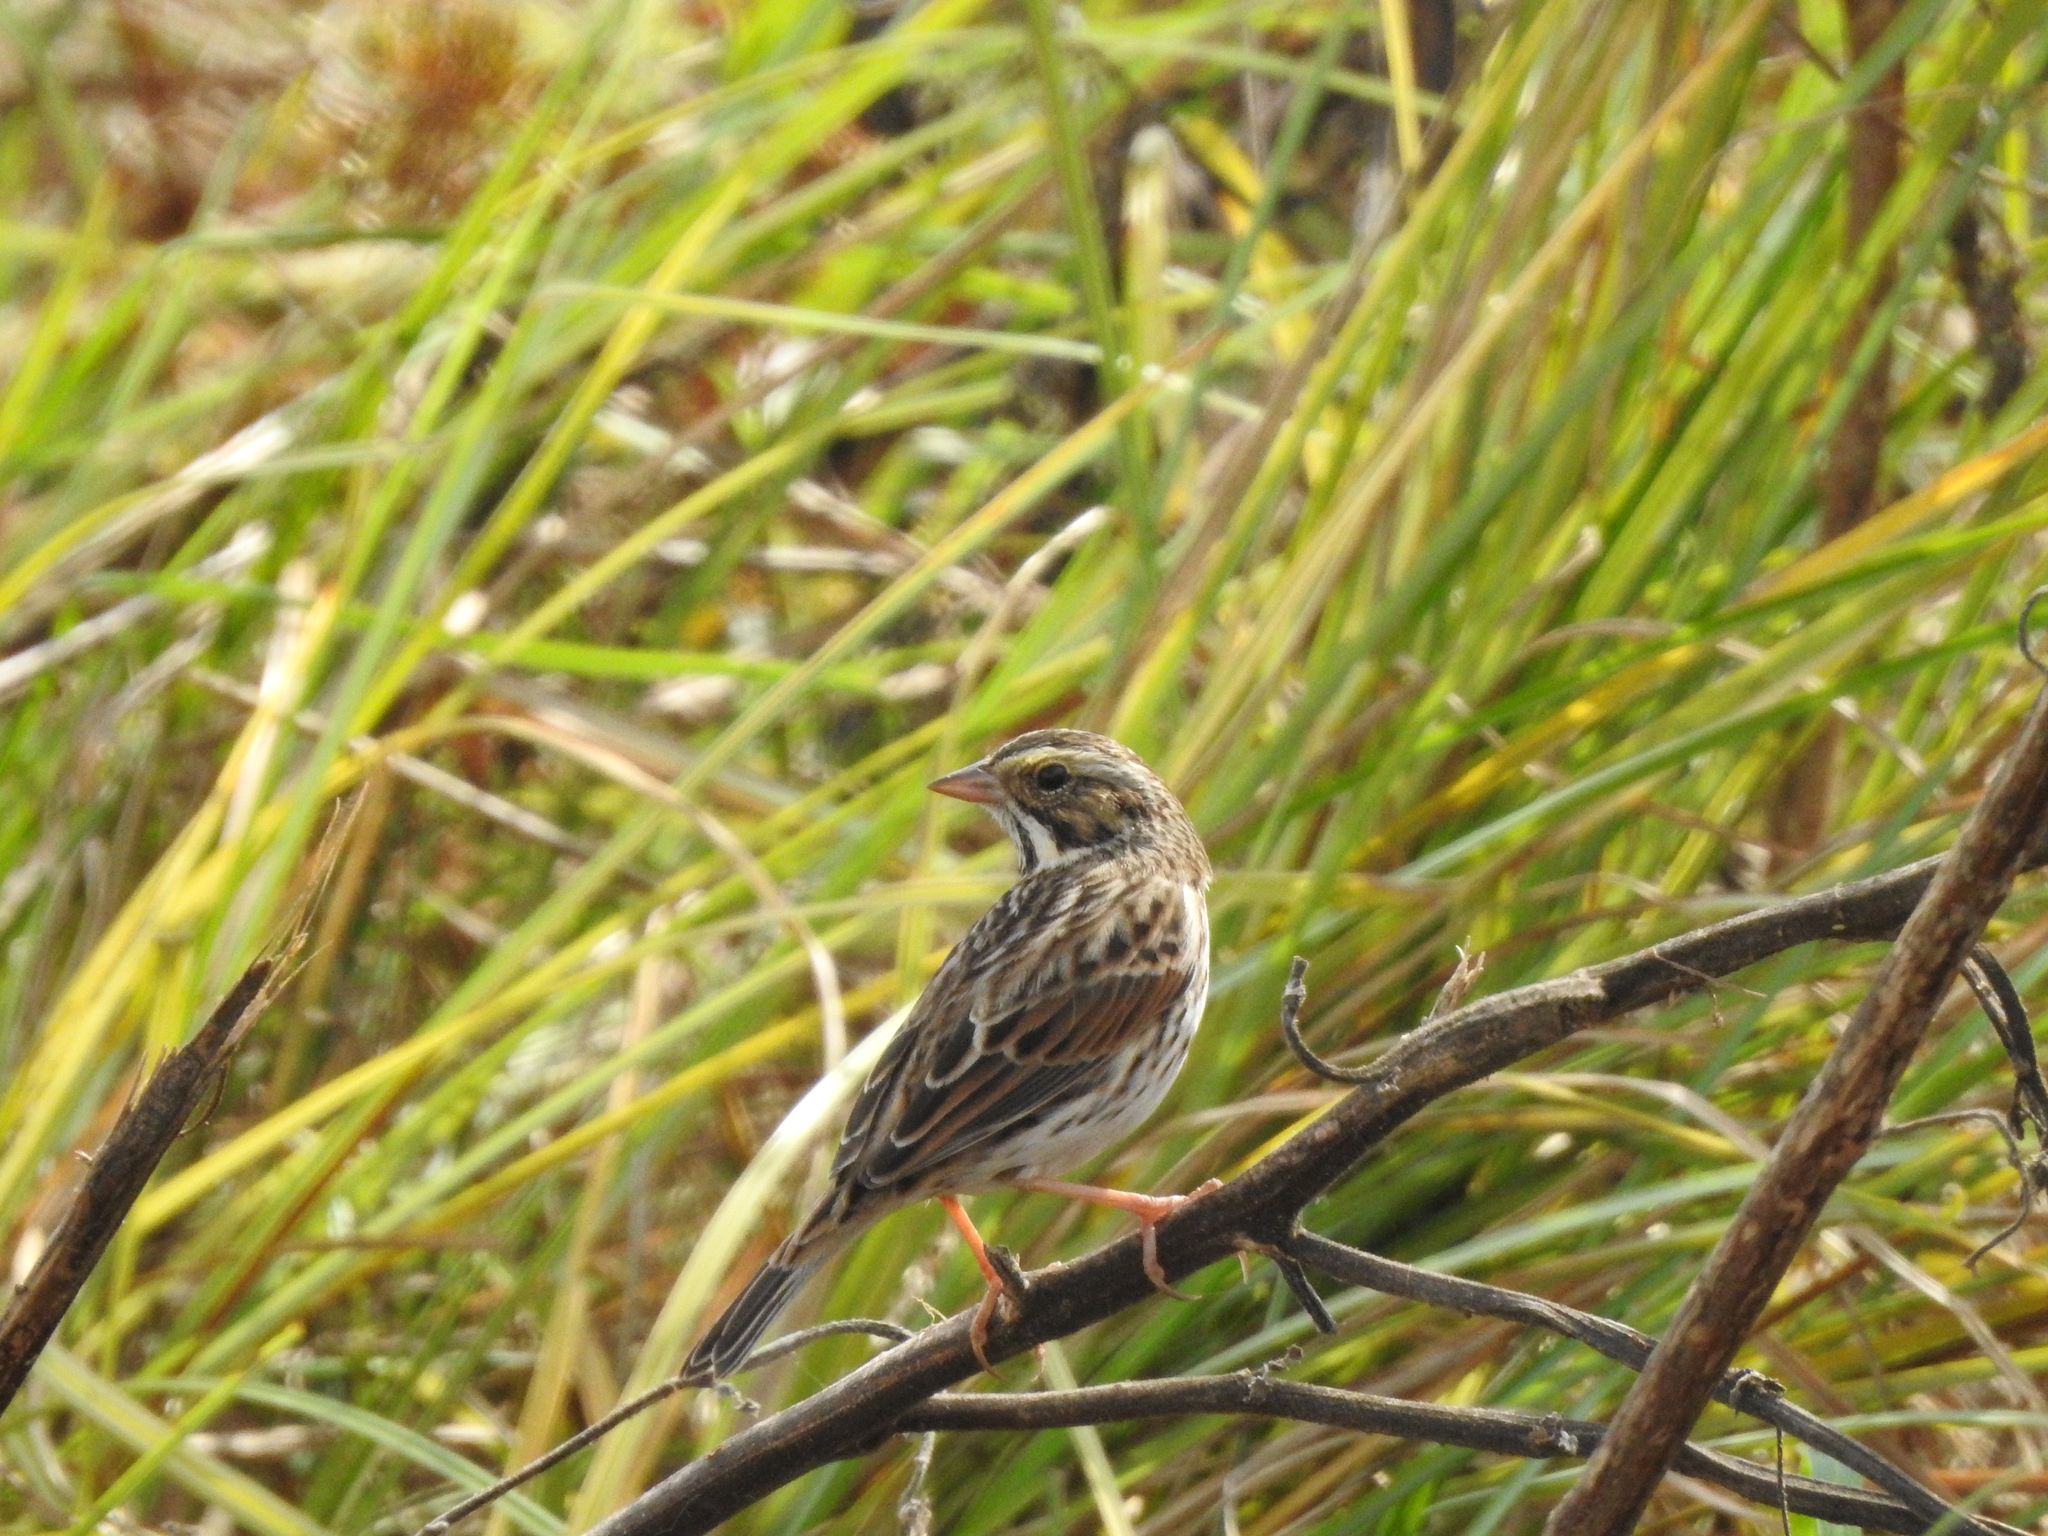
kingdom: Animalia
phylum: Chordata
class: Aves
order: Passeriformes
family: Passerellidae
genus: Passerculus
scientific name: Passerculus sandwichensis
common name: Savannah sparrow
